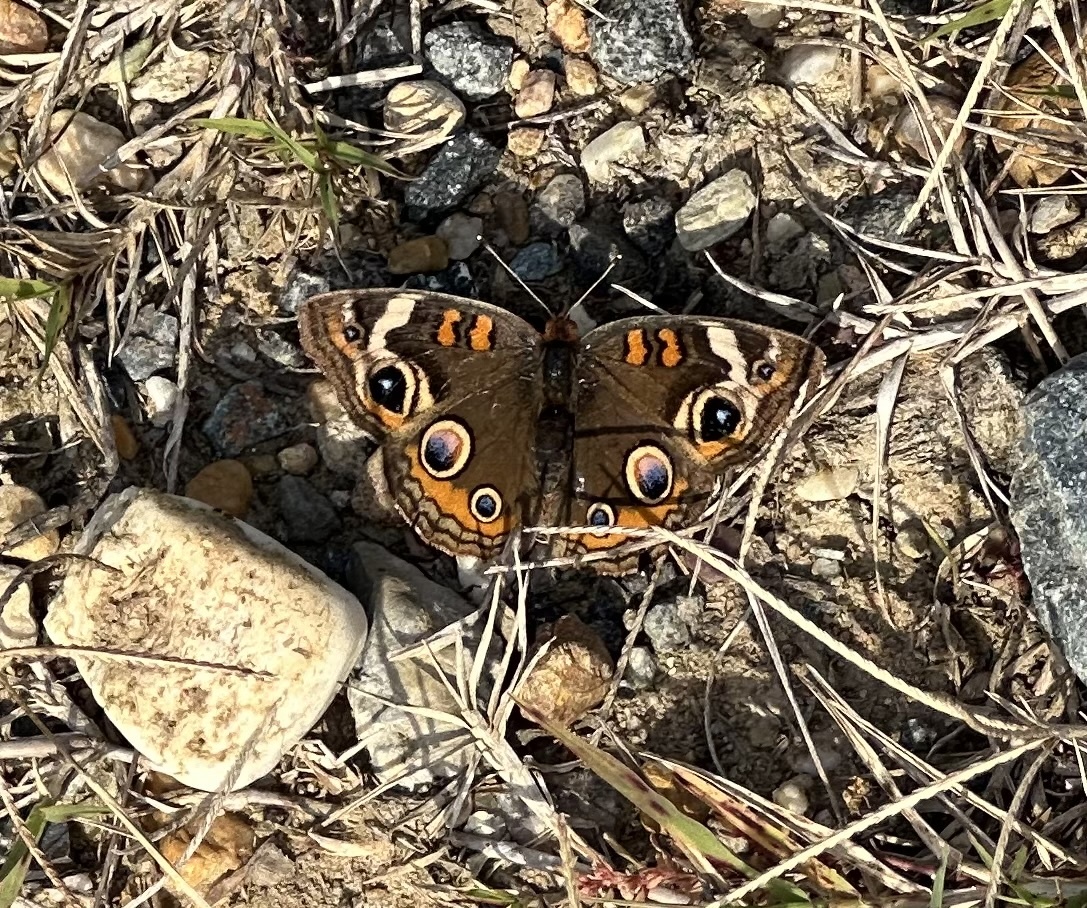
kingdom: Animalia
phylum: Arthropoda
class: Insecta
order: Lepidoptera
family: Nymphalidae
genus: Junonia
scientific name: Junonia coenia
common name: Common buckeye
